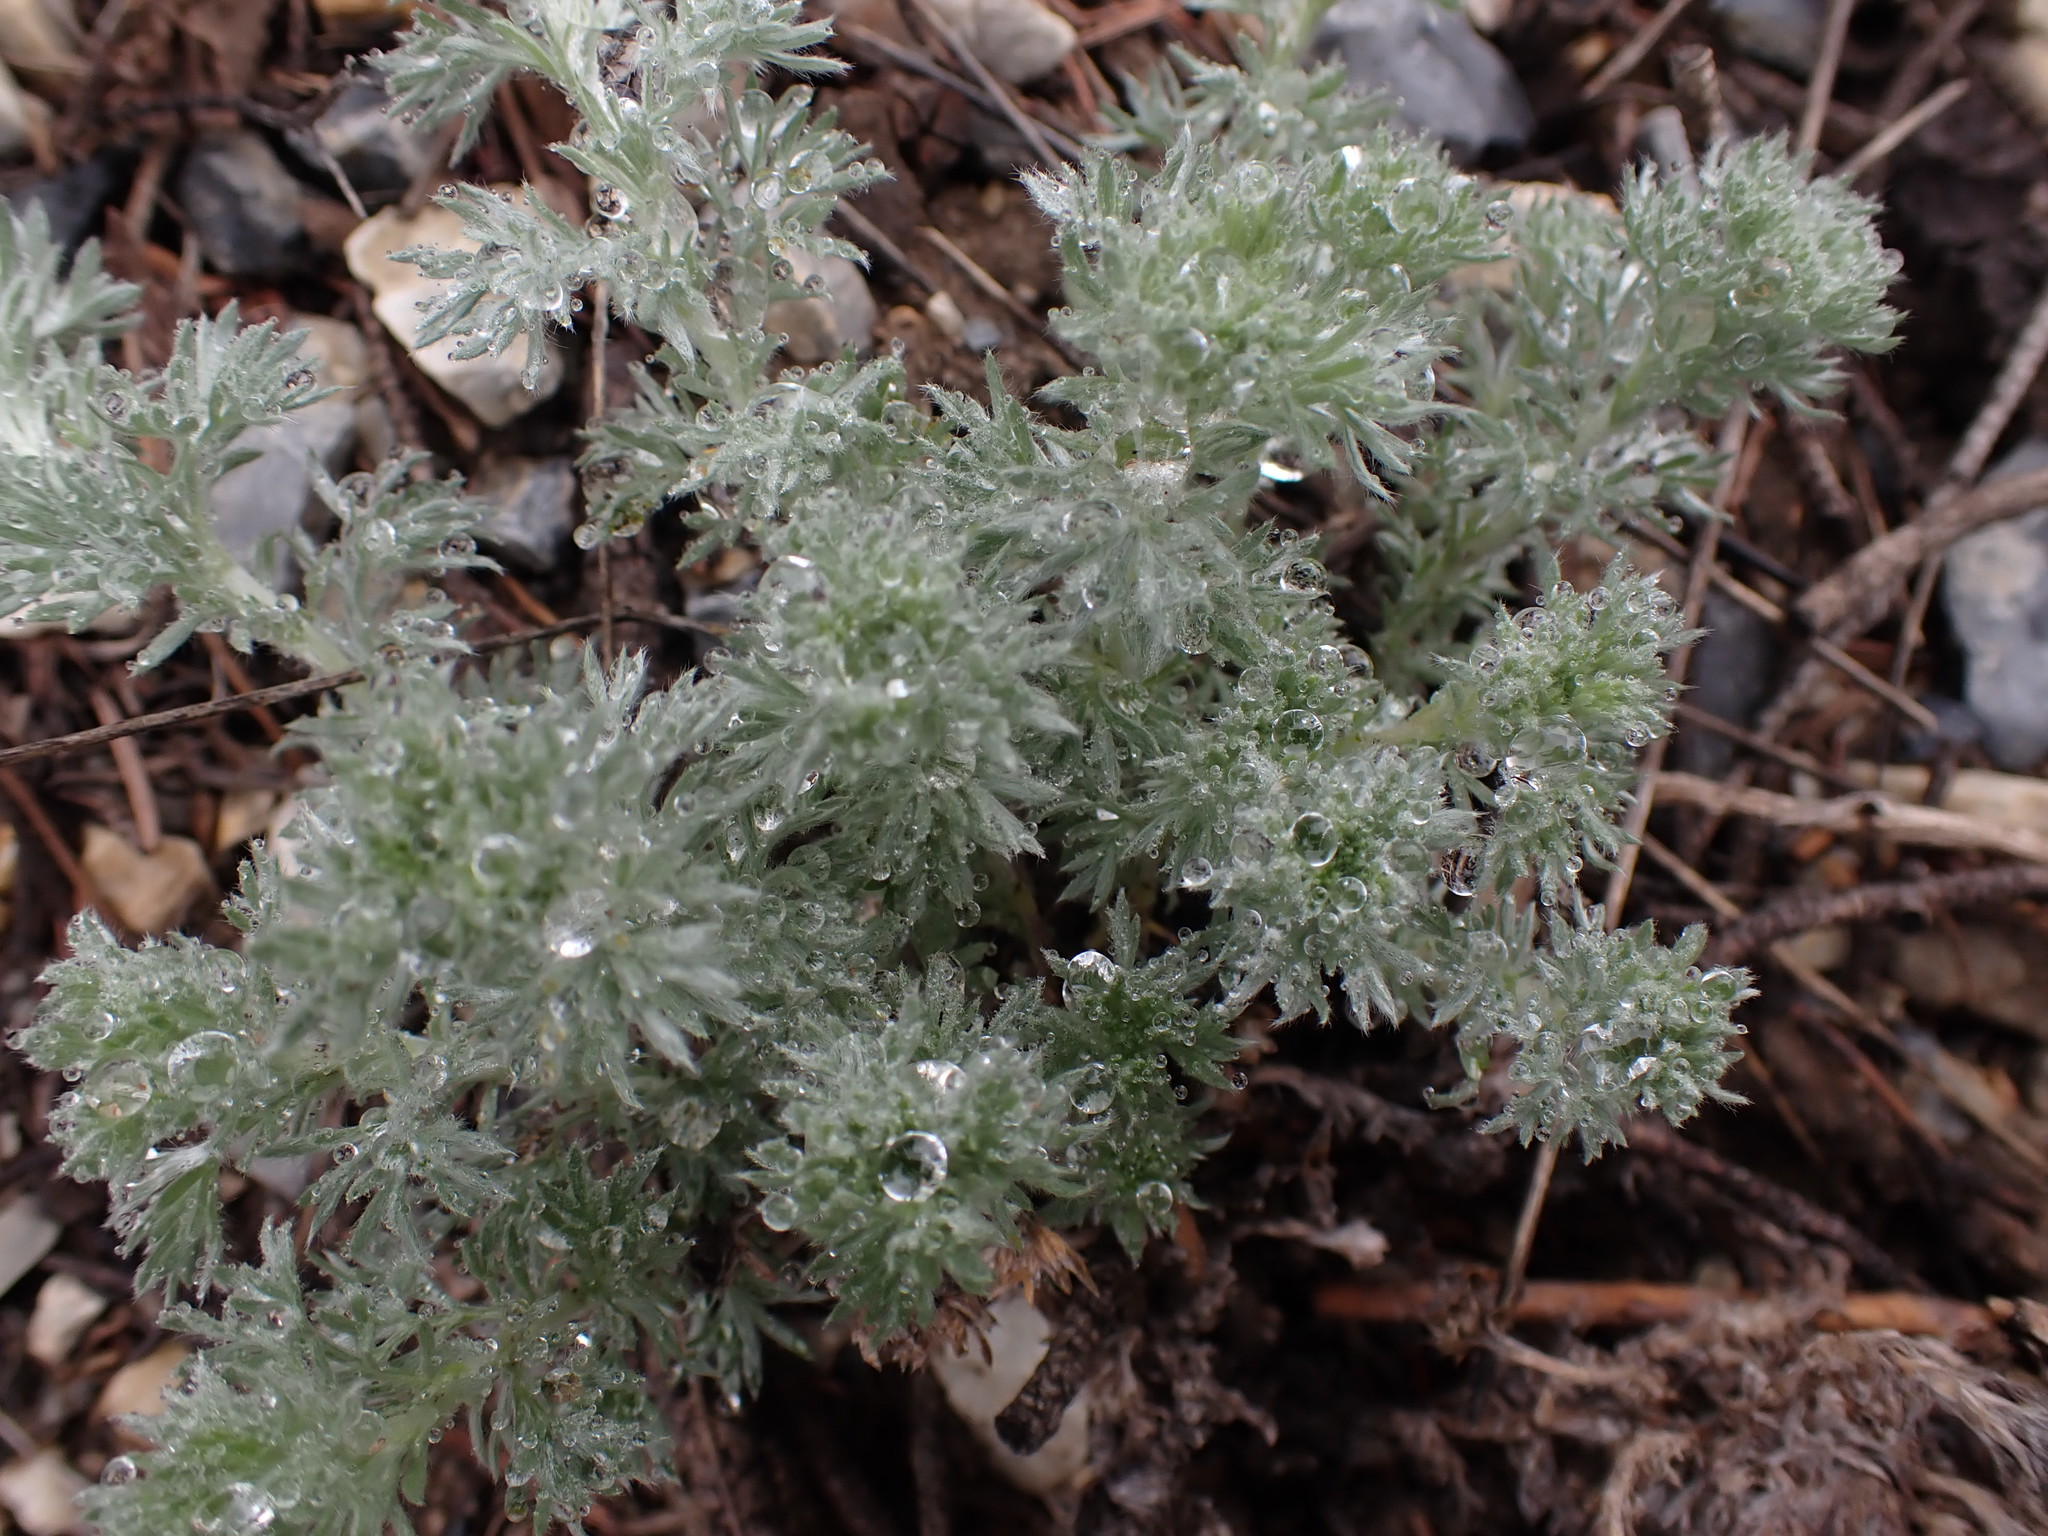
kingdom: Plantae
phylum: Tracheophyta
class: Magnoliopsida
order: Asterales
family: Asteraceae
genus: Artemisia
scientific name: Artemisia frigida
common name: Prairie sagewort
